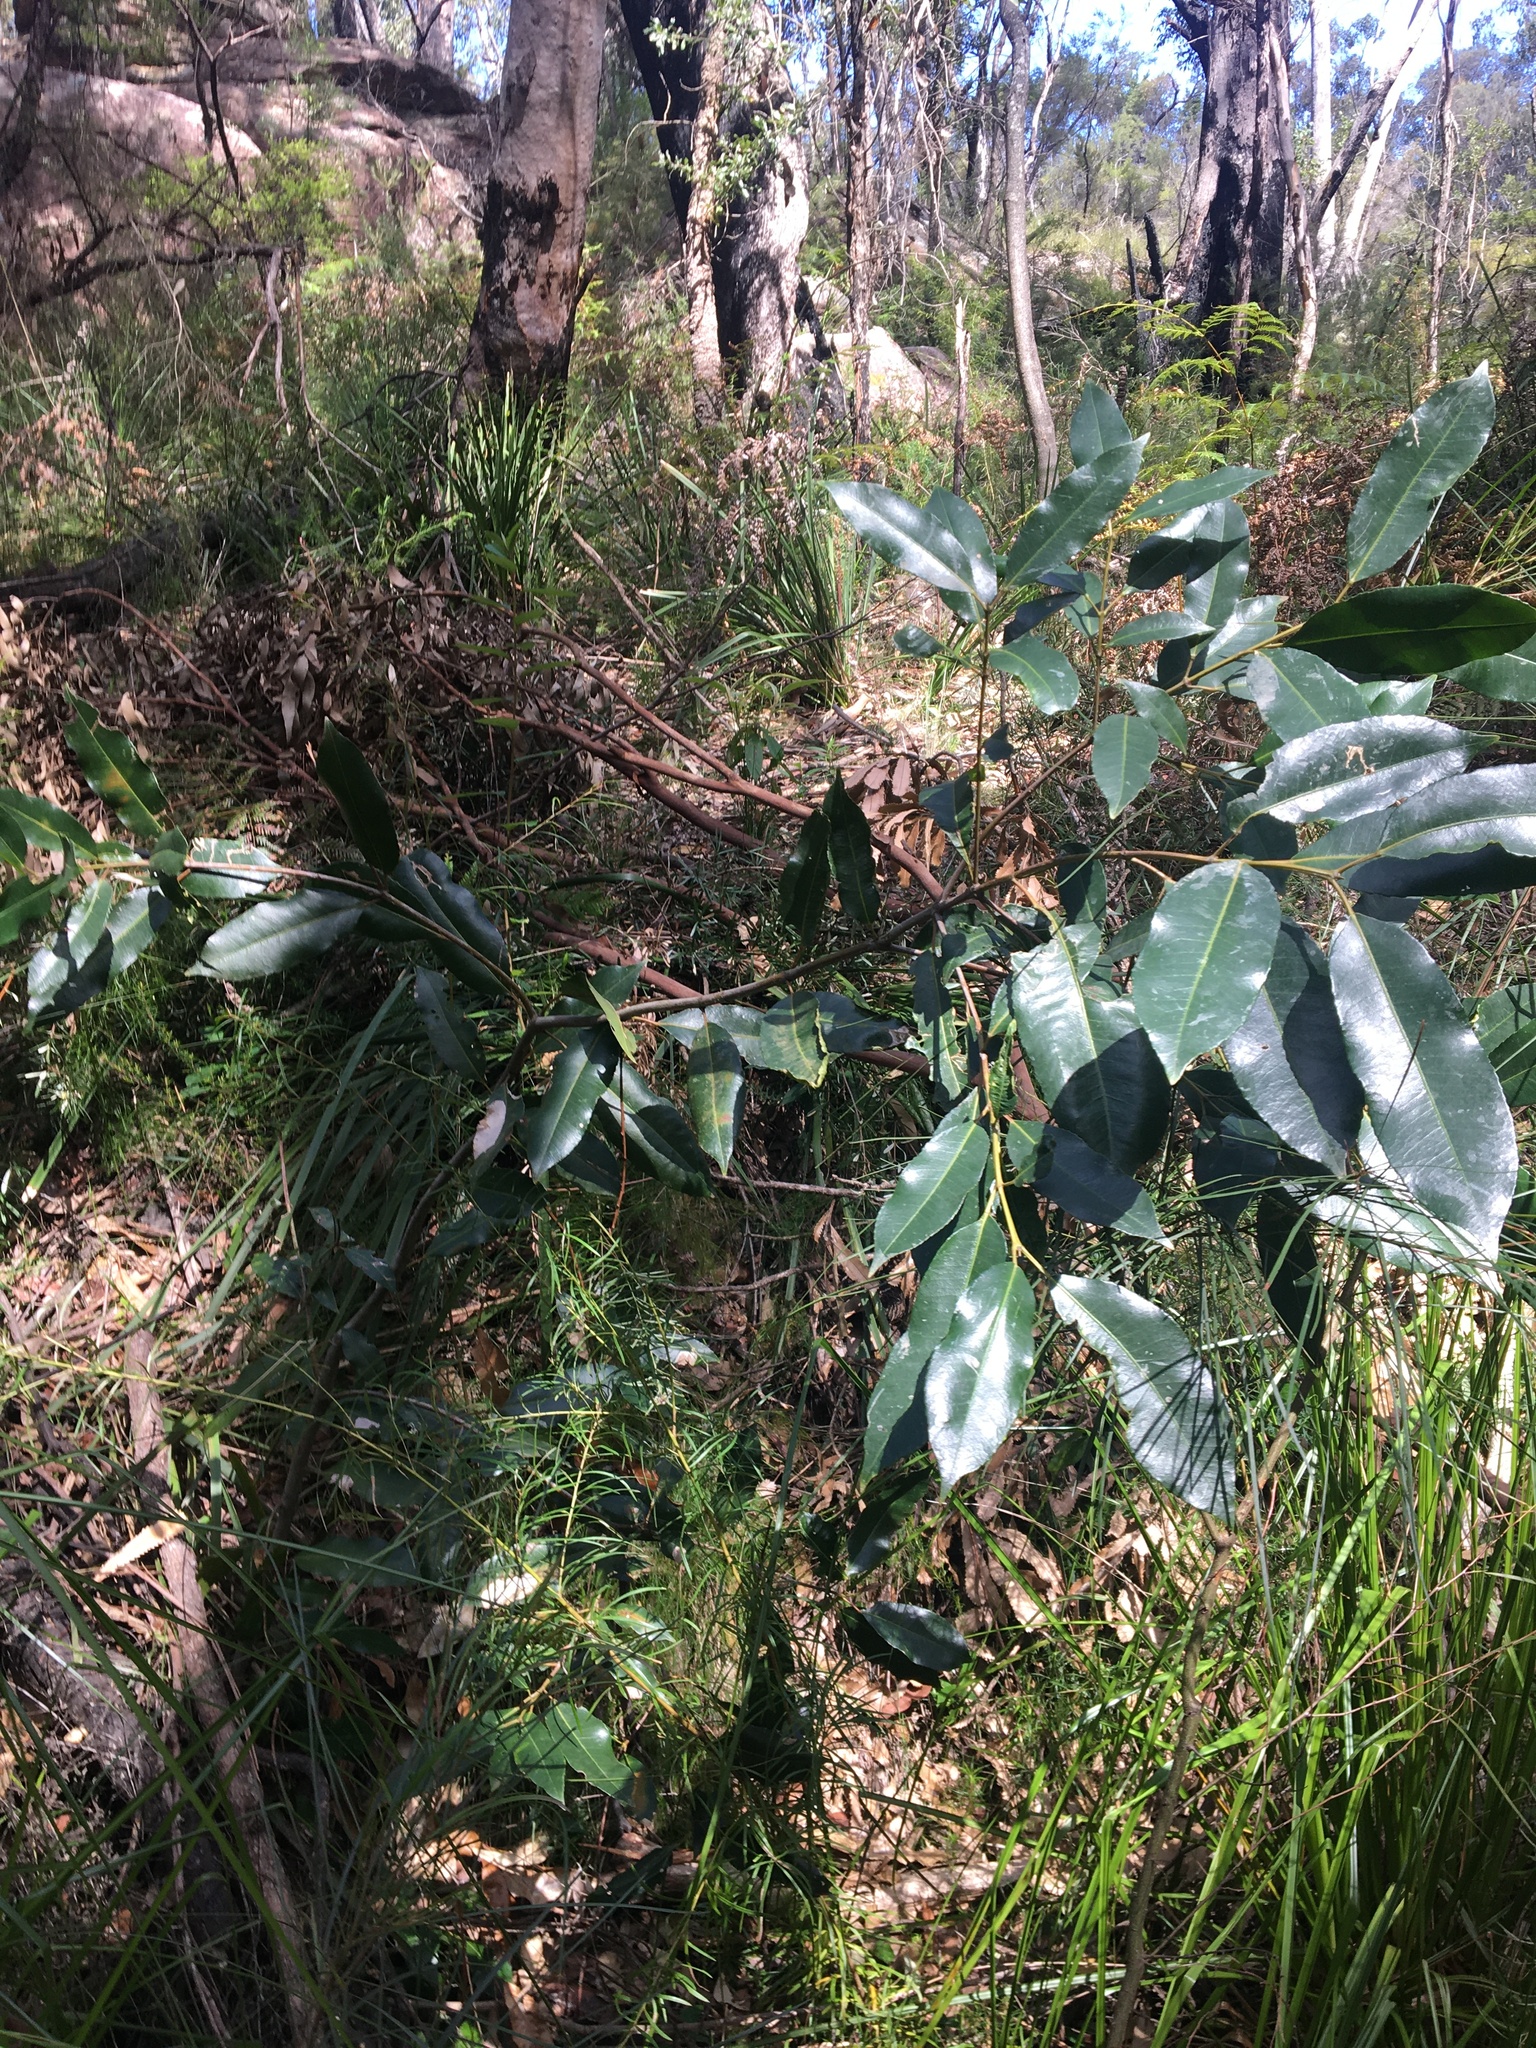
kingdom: Plantae
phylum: Tracheophyta
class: Magnoliopsida
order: Oxalidales
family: Cunoniaceae
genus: Ceratopetalum
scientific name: Ceratopetalum apetalum
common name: Scented satinwood
